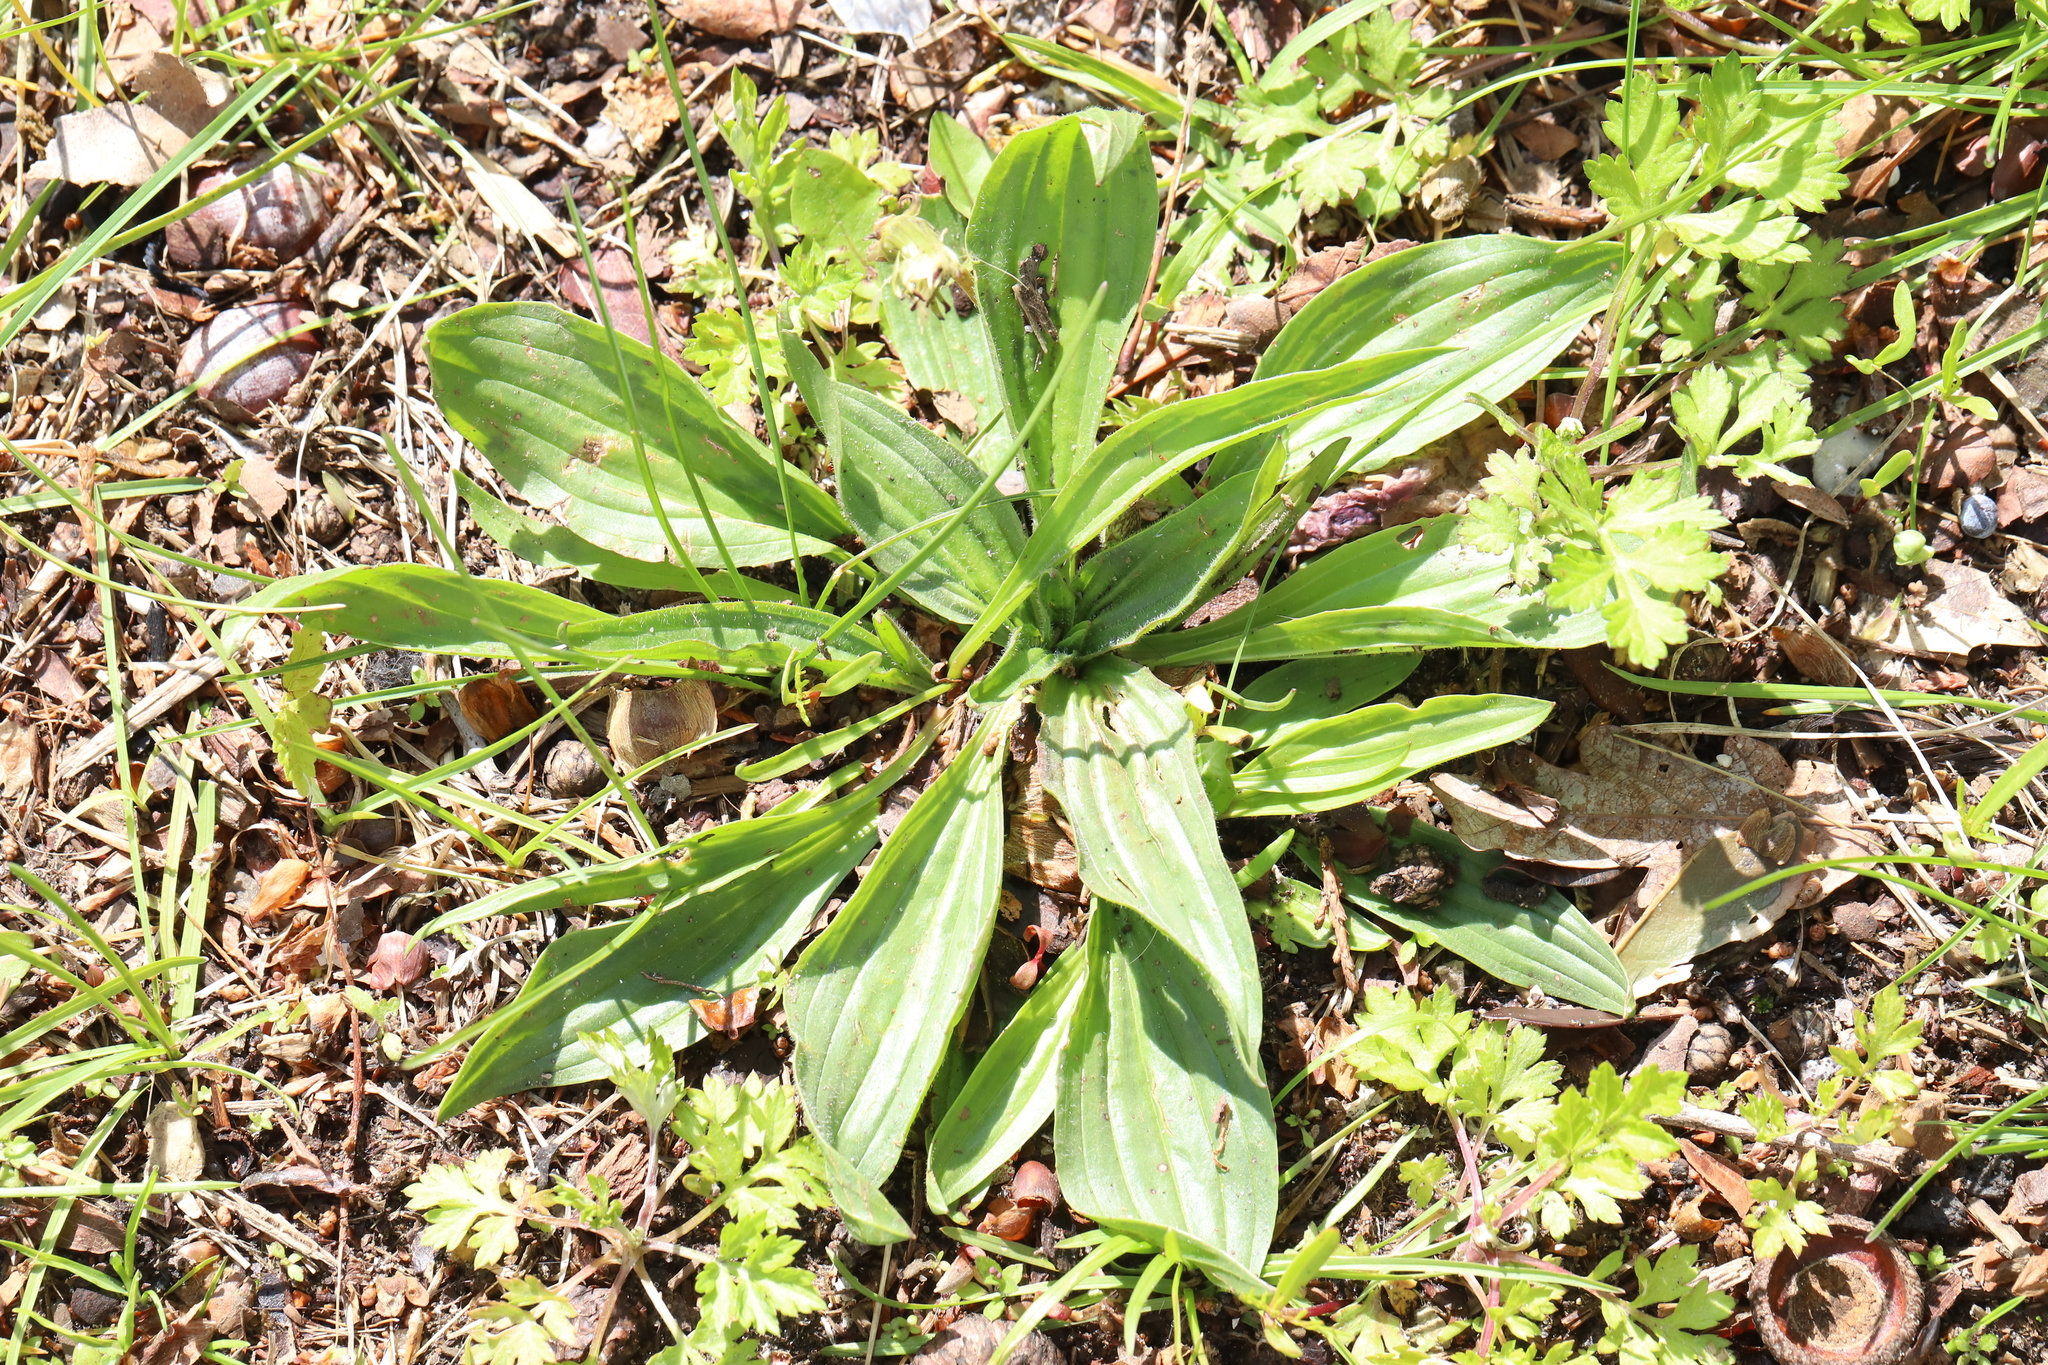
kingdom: Plantae
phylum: Tracheophyta
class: Magnoliopsida
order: Lamiales
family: Plantaginaceae
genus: Plantago
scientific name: Plantago lanceolata
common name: Ribwort plantain
